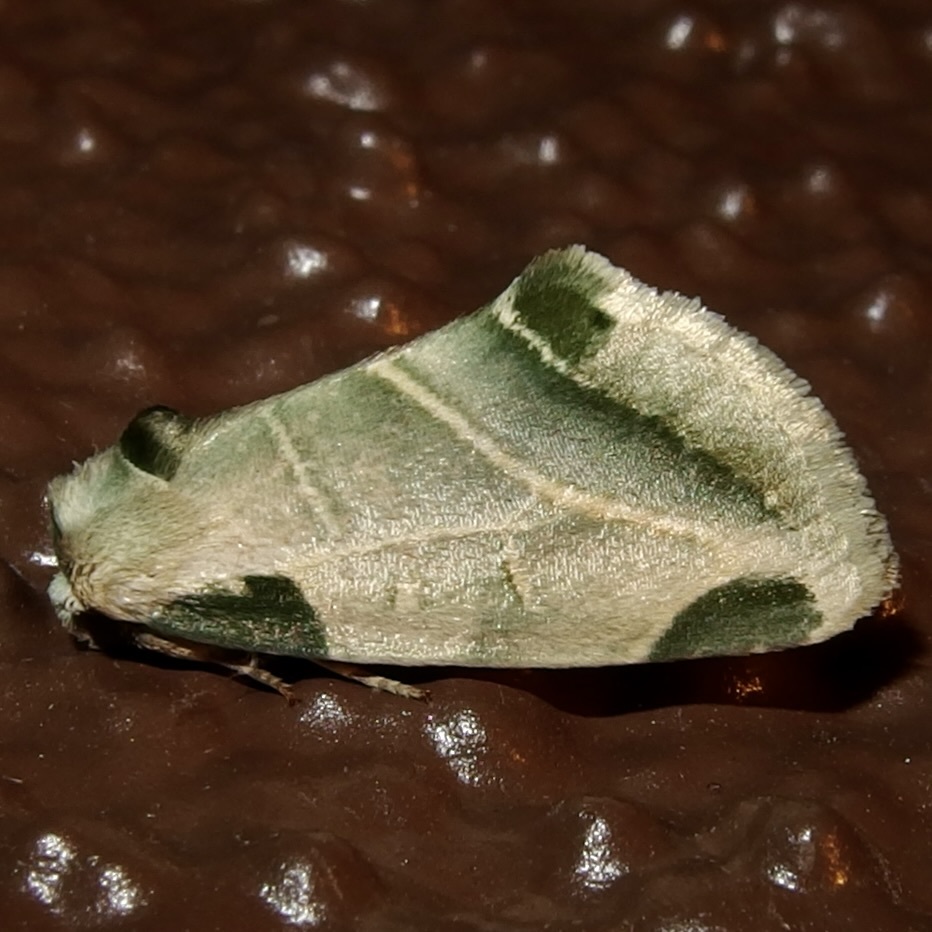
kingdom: Animalia
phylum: Arthropoda
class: Insecta
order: Lepidoptera
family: Noctuidae
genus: Heminocloa
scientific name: Heminocloa mirabilis
